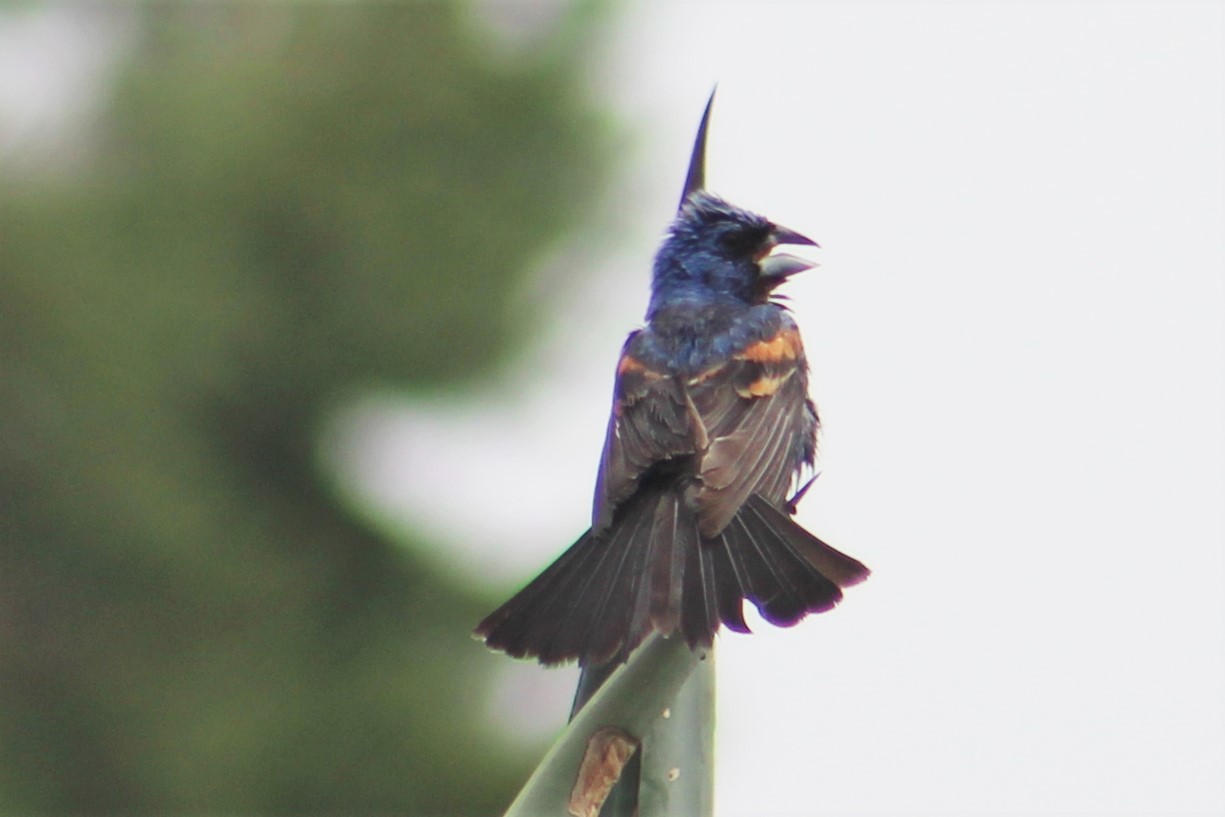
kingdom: Animalia
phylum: Chordata
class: Aves
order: Passeriformes
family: Cardinalidae
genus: Passerina
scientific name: Passerina caerulea
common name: Blue grosbeak
